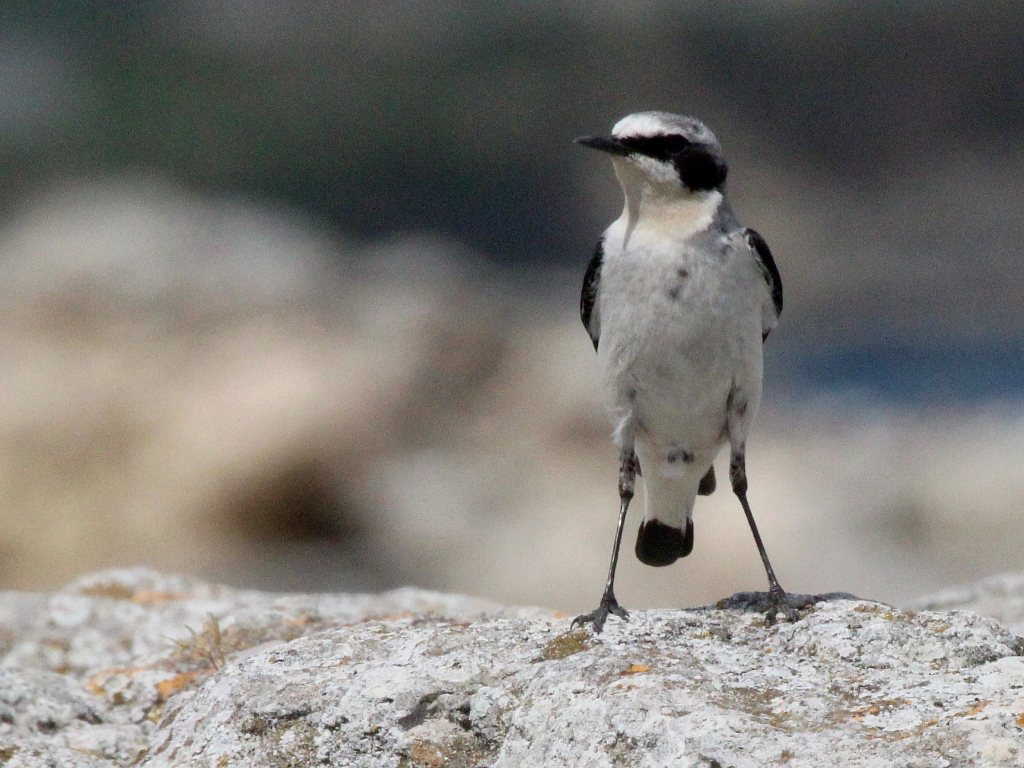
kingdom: Animalia
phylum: Chordata
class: Aves
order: Passeriformes
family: Muscicapidae
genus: Oenanthe
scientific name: Oenanthe oenanthe
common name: Northern wheatear
